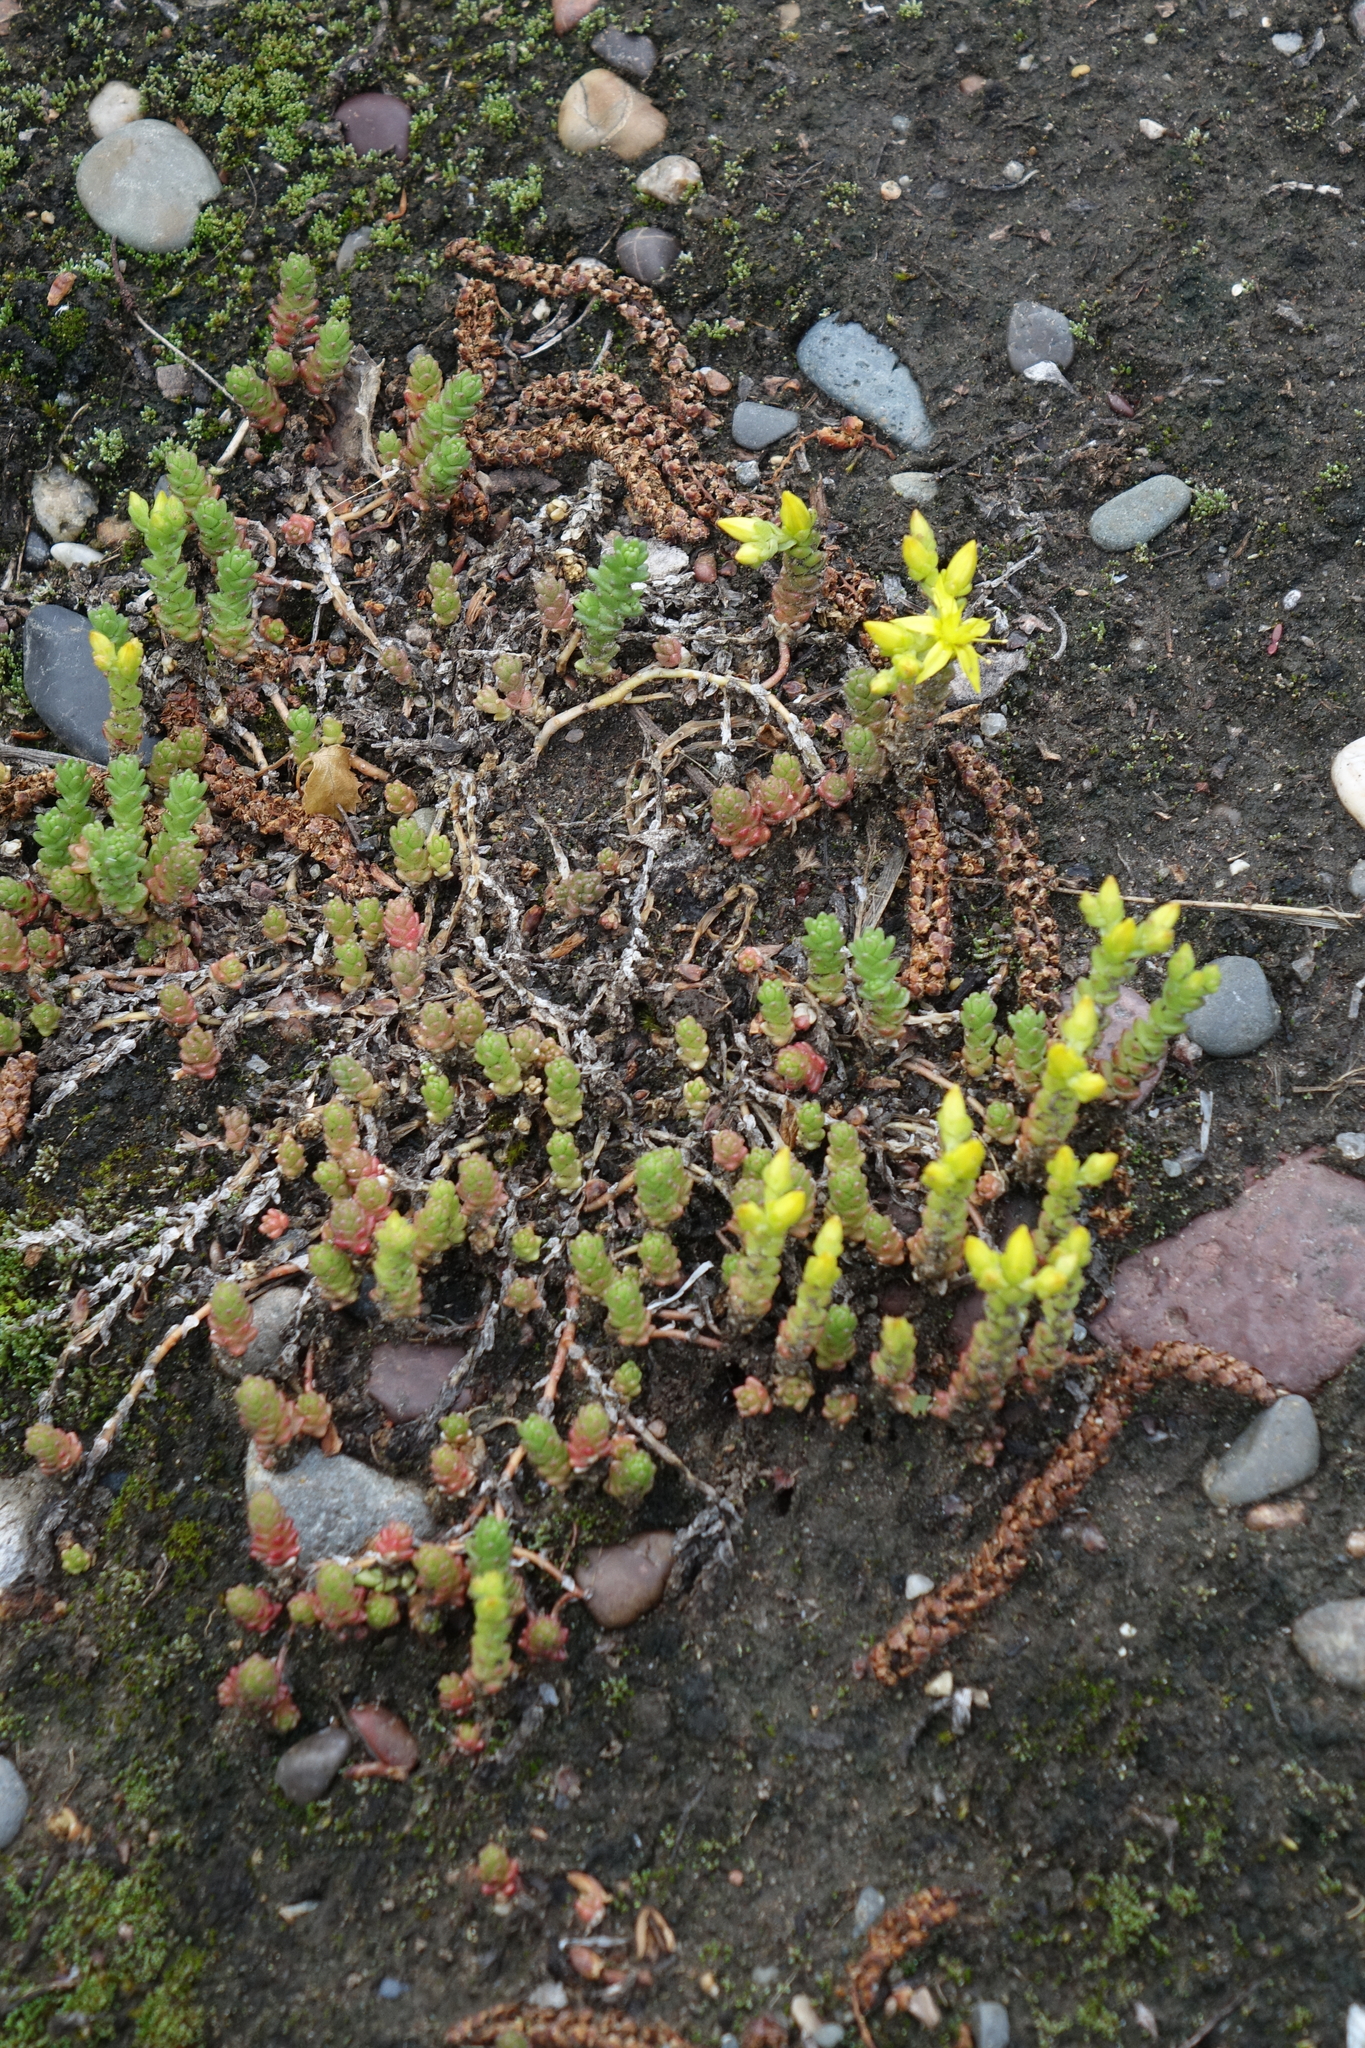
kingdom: Plantae
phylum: Tracheophyta
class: Magnoliopsida
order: Saxifragales
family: Crassulaceae
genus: Sedum
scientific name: Sedum acre
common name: Biting stonecrop
